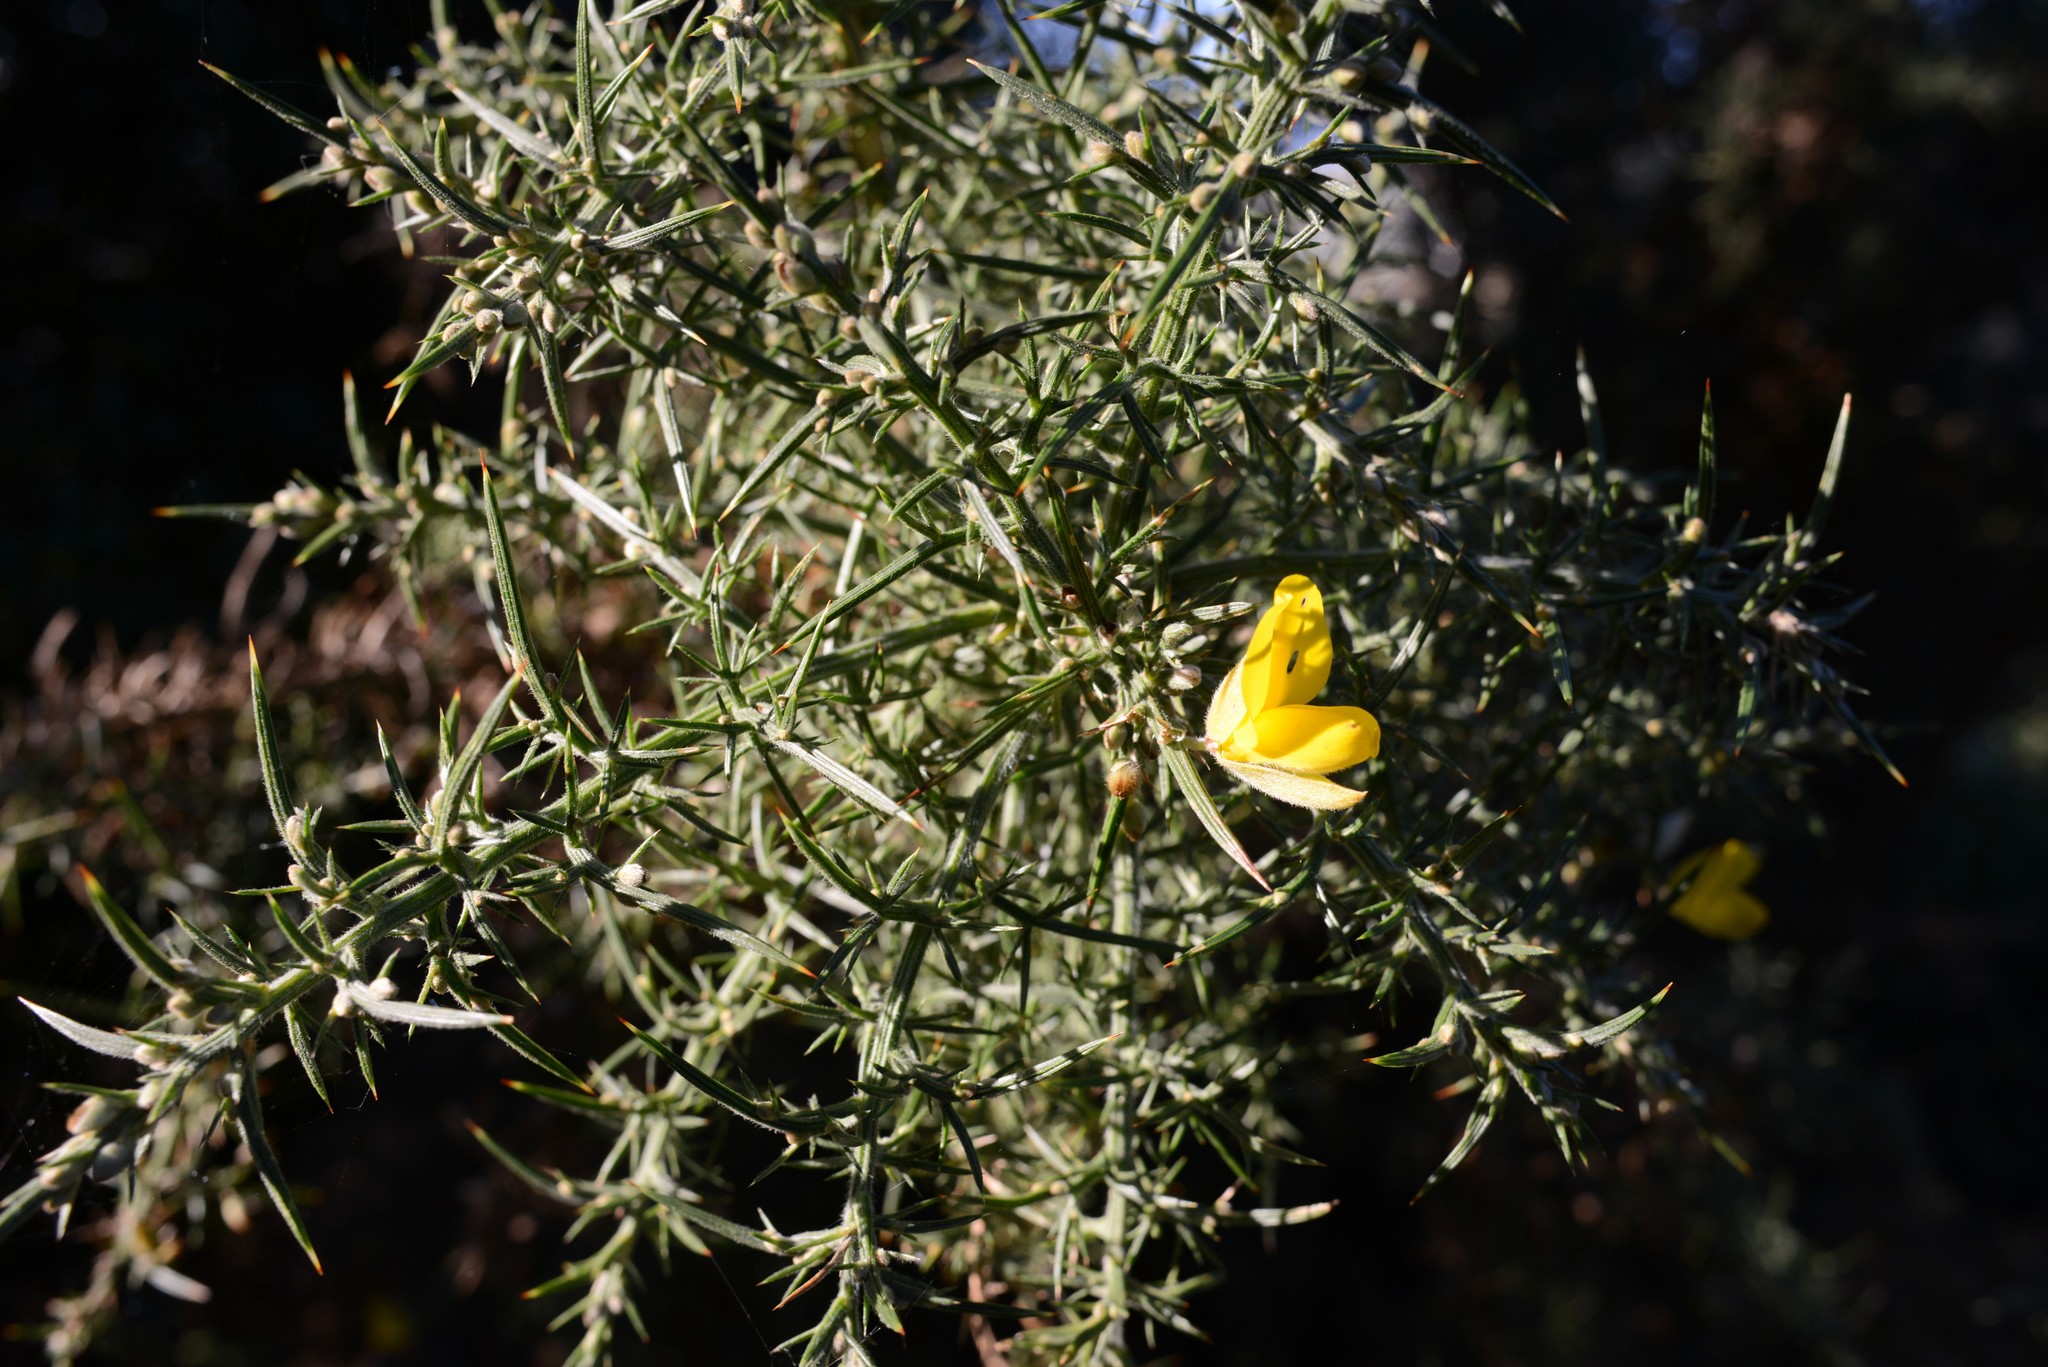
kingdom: Plantae
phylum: Tracheophyta
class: Magnoliopsida
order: Fabales
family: Fabaceae
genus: Ulex
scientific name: Ulex europaeus
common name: Common gorse
